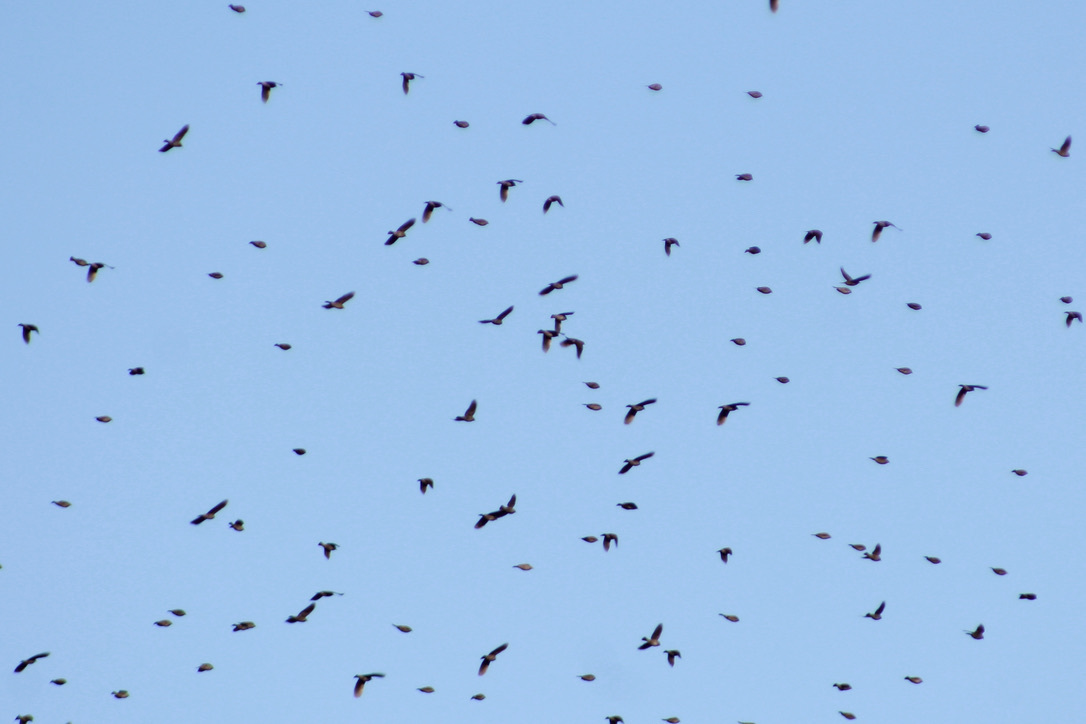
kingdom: Animalia
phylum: Chordata
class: Aves
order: Passeriformes
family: Icteridae
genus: Agelaius
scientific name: Agelaius phoeniceus
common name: Red-winged blackbird
